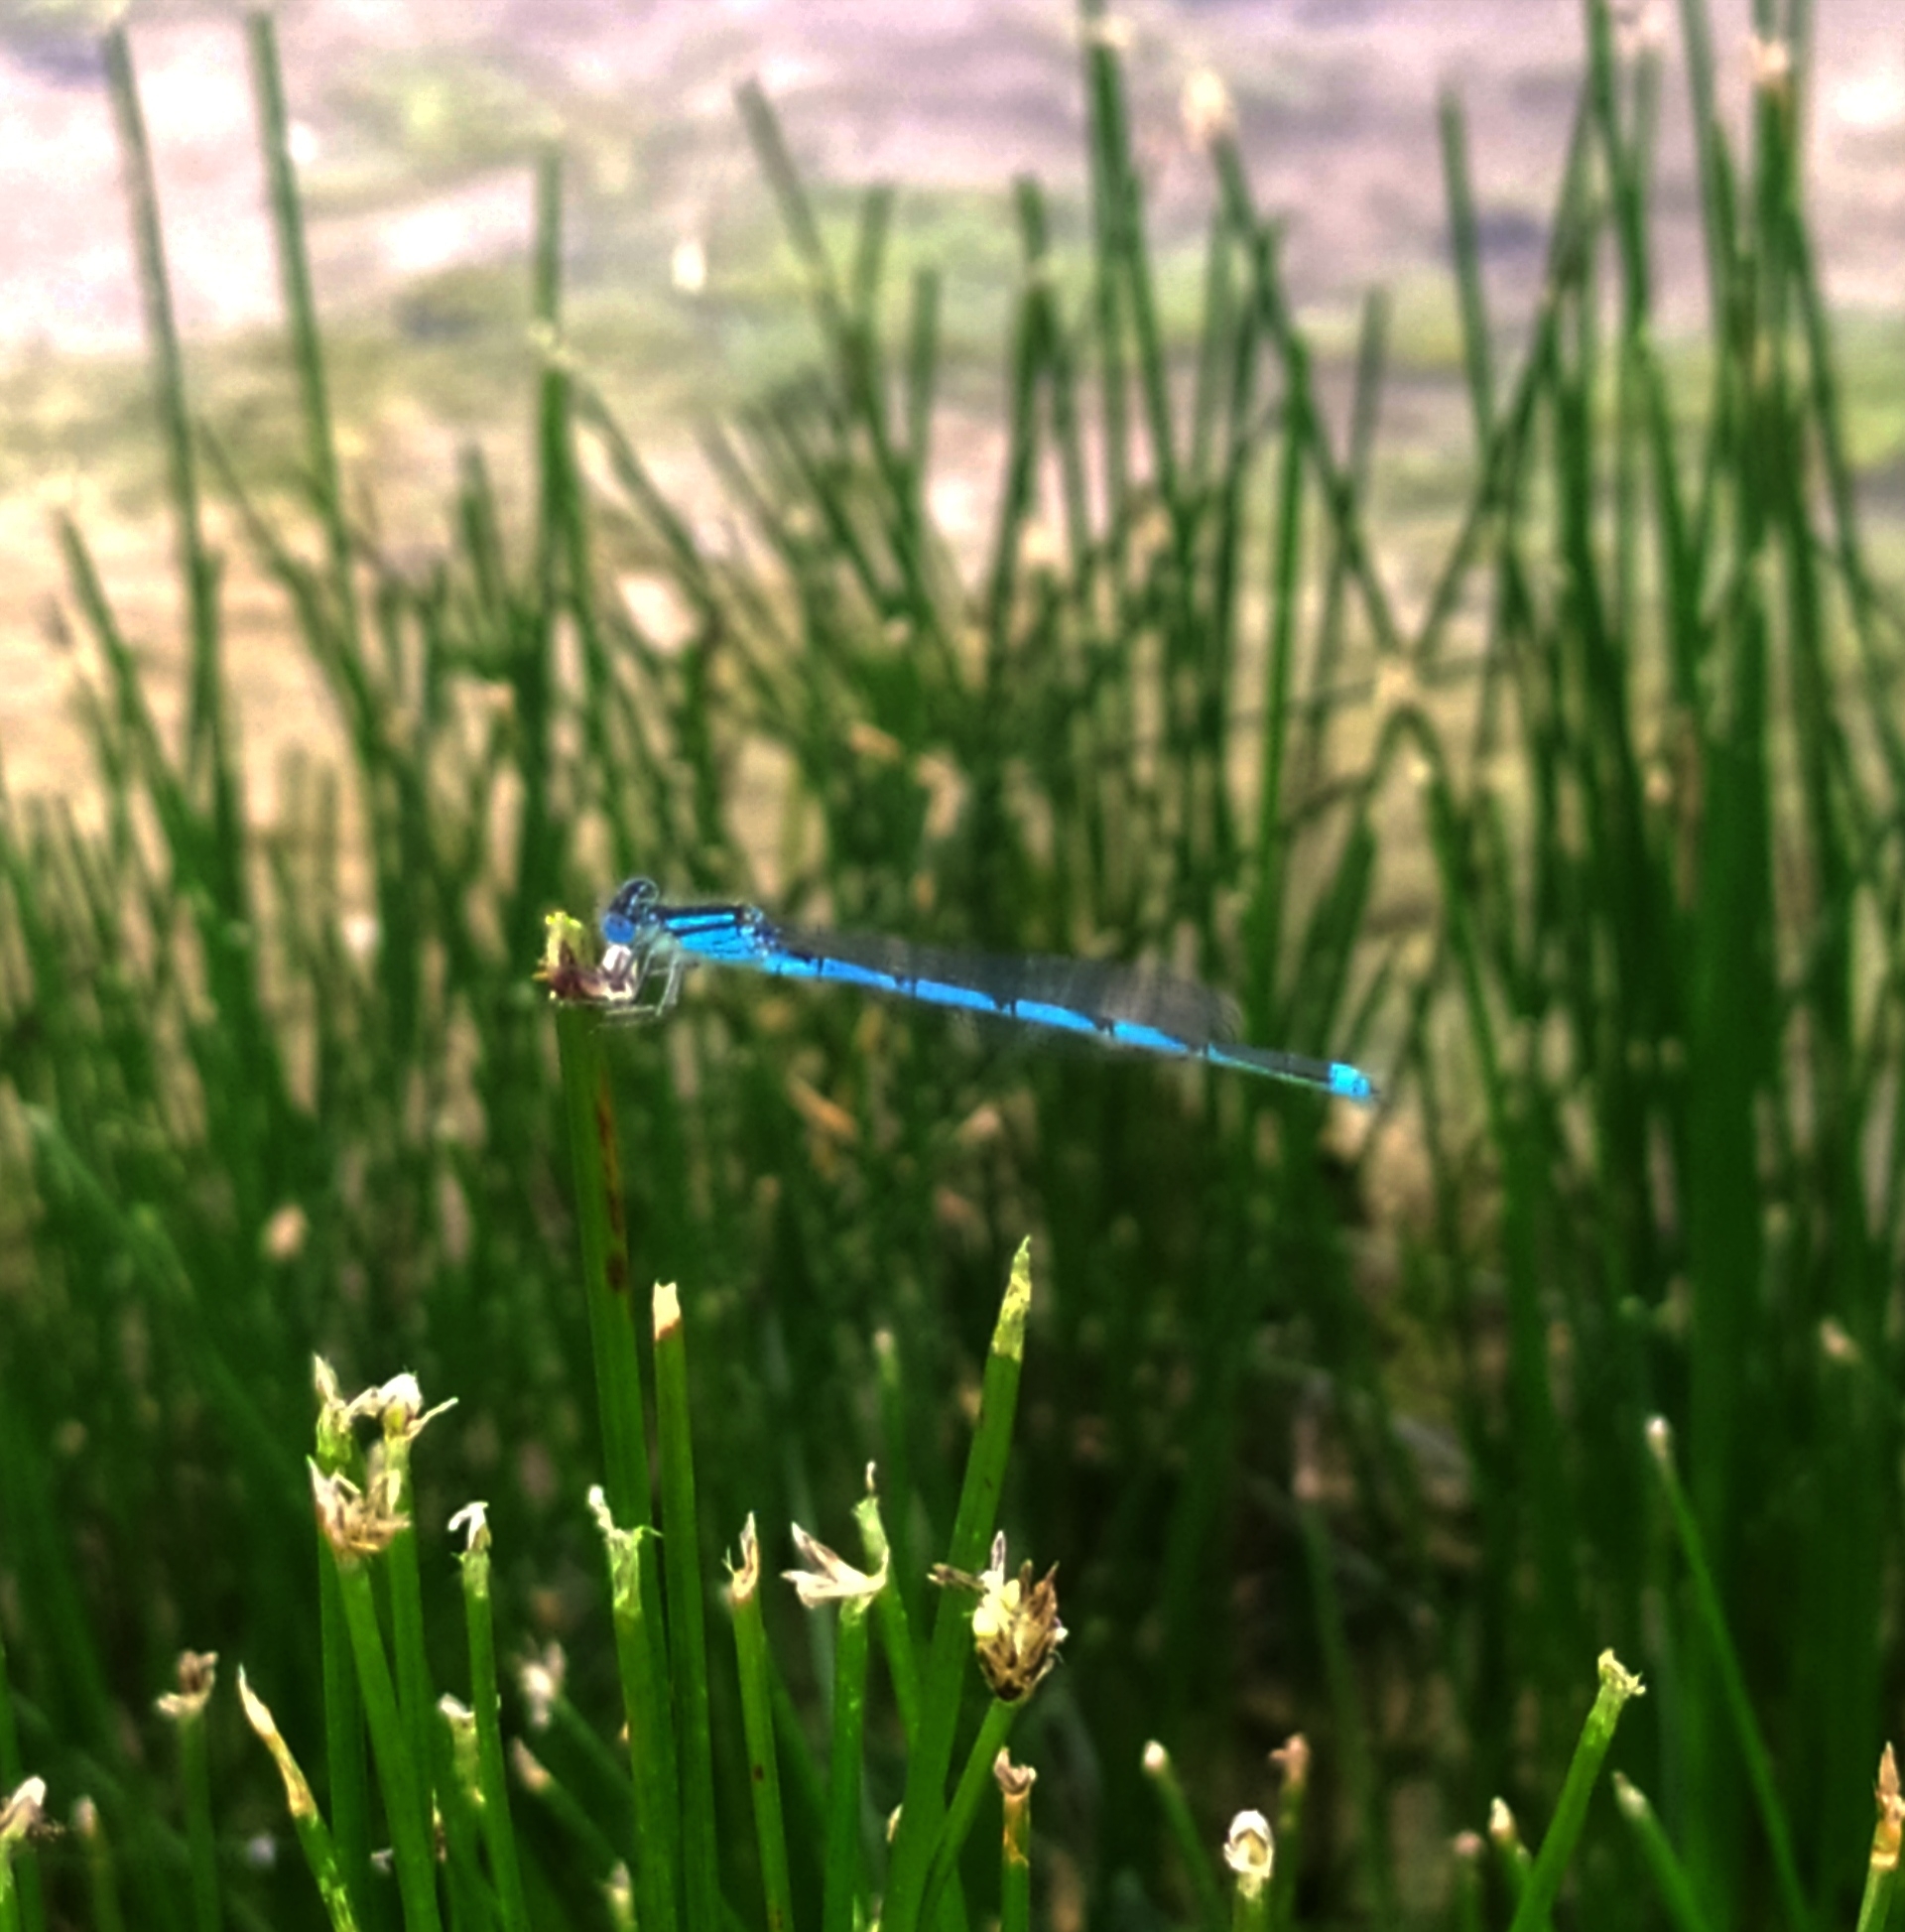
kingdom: Animalia
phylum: Arthropoda
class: Insecta
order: Odonata
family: Coenagrionidae
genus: Erythromma
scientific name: Erythromma lindenii
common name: Blue-eye
